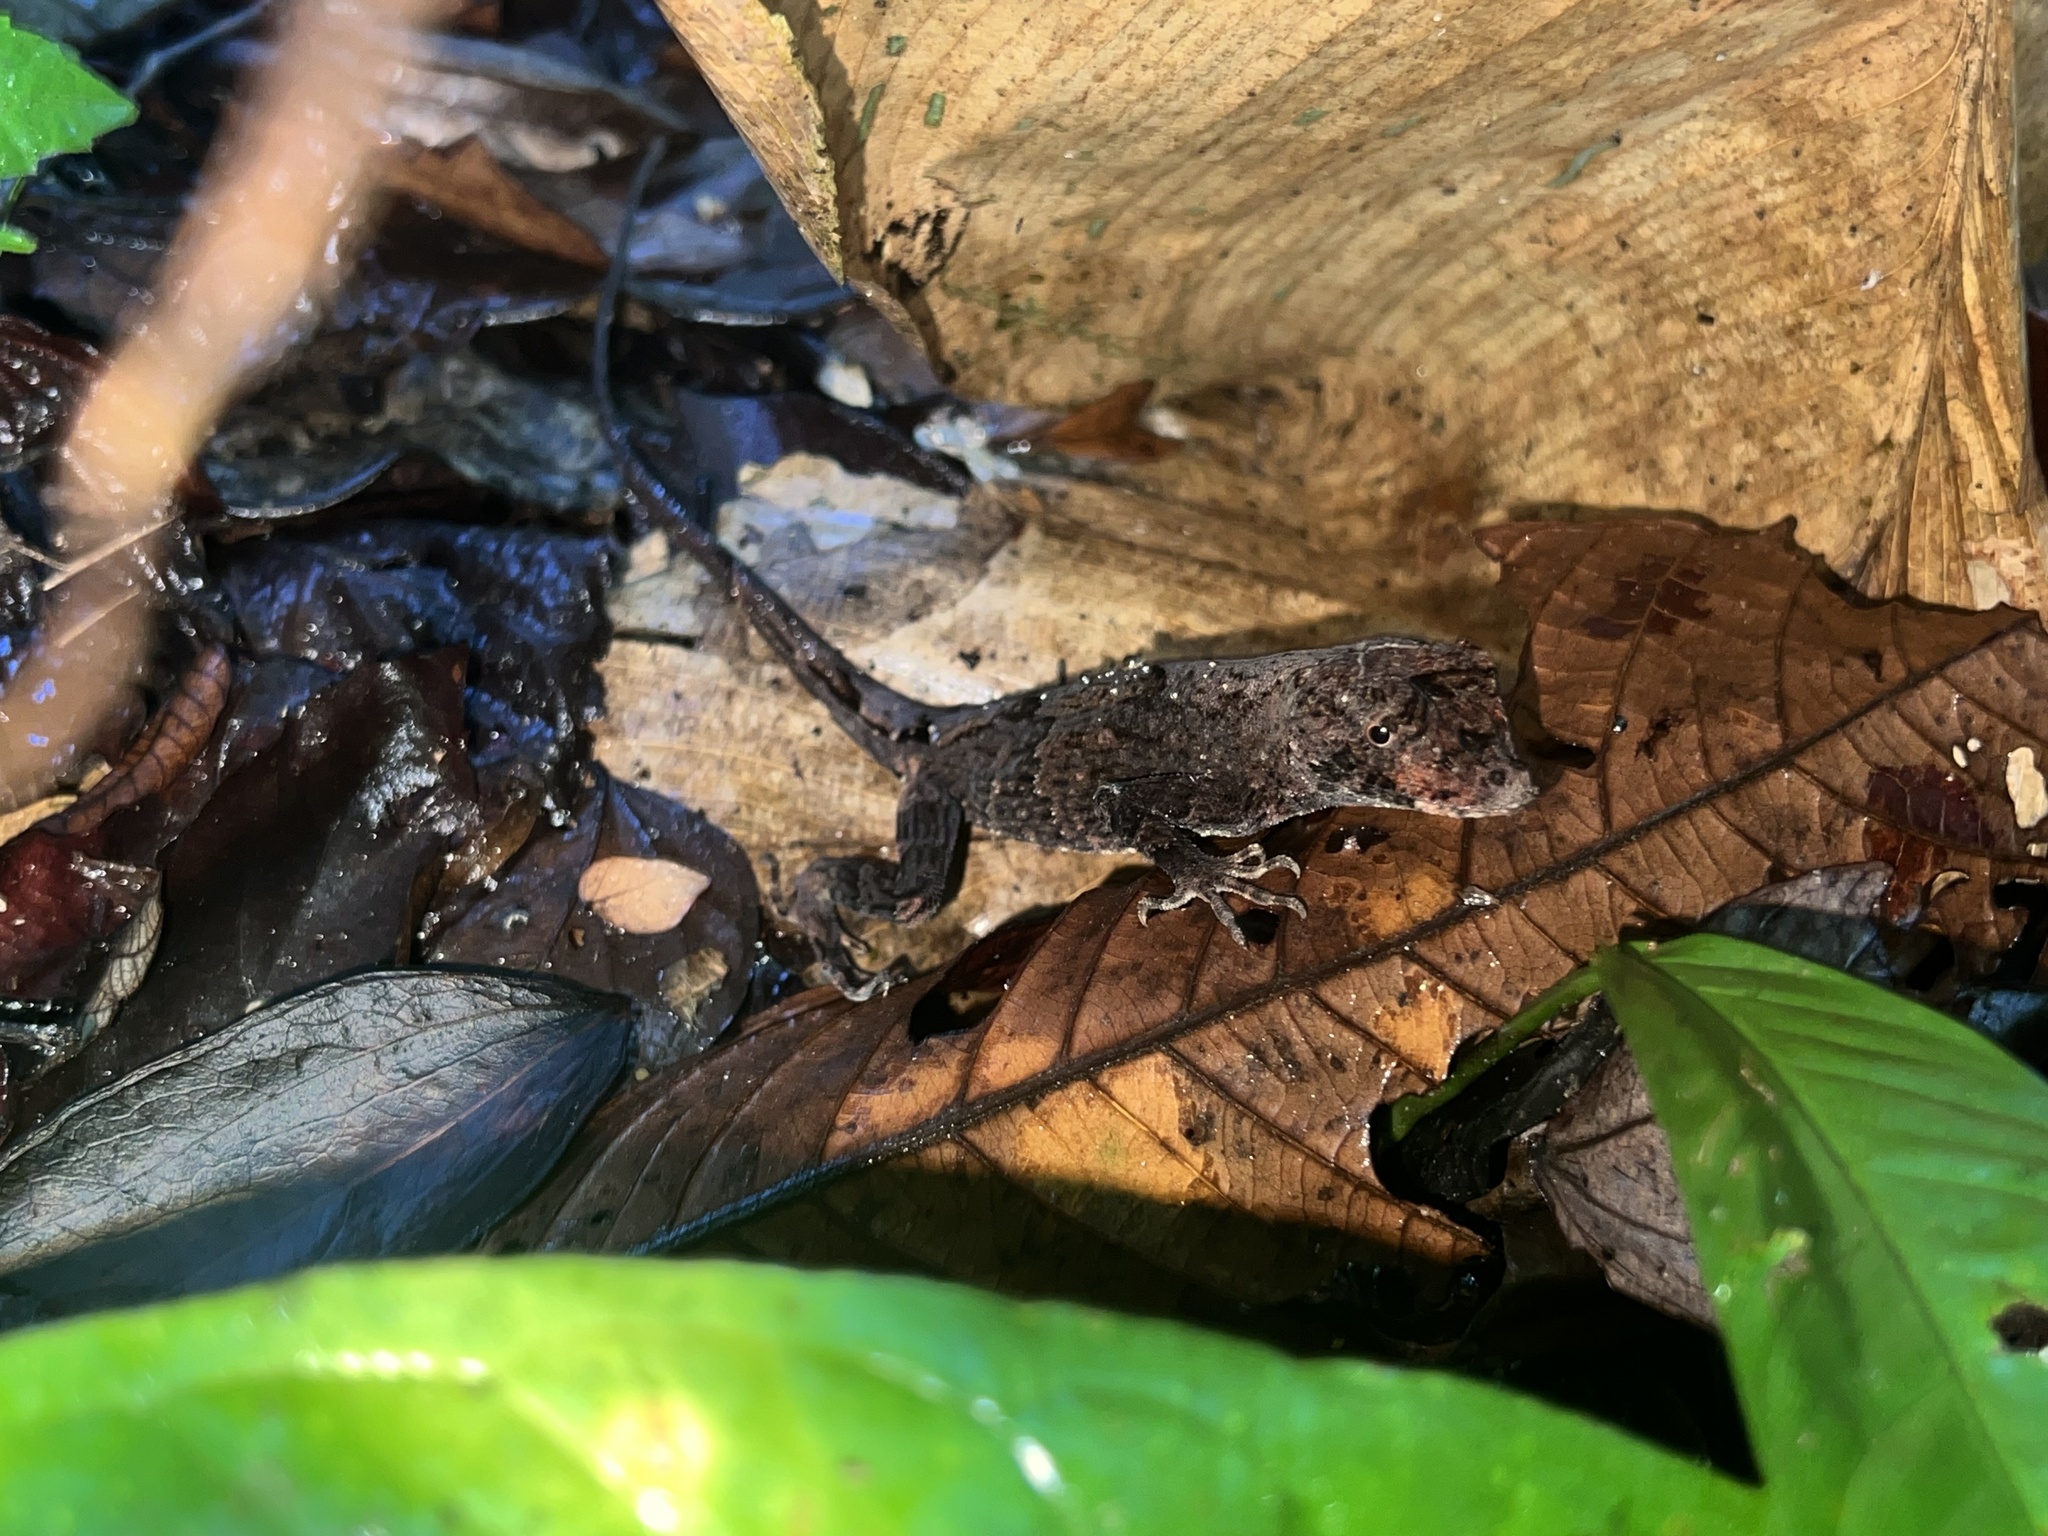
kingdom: Animalia
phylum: Chordata
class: Squamata
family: Dactyloidae
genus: Anolis
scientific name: Anolis capito
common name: Bighead anole
